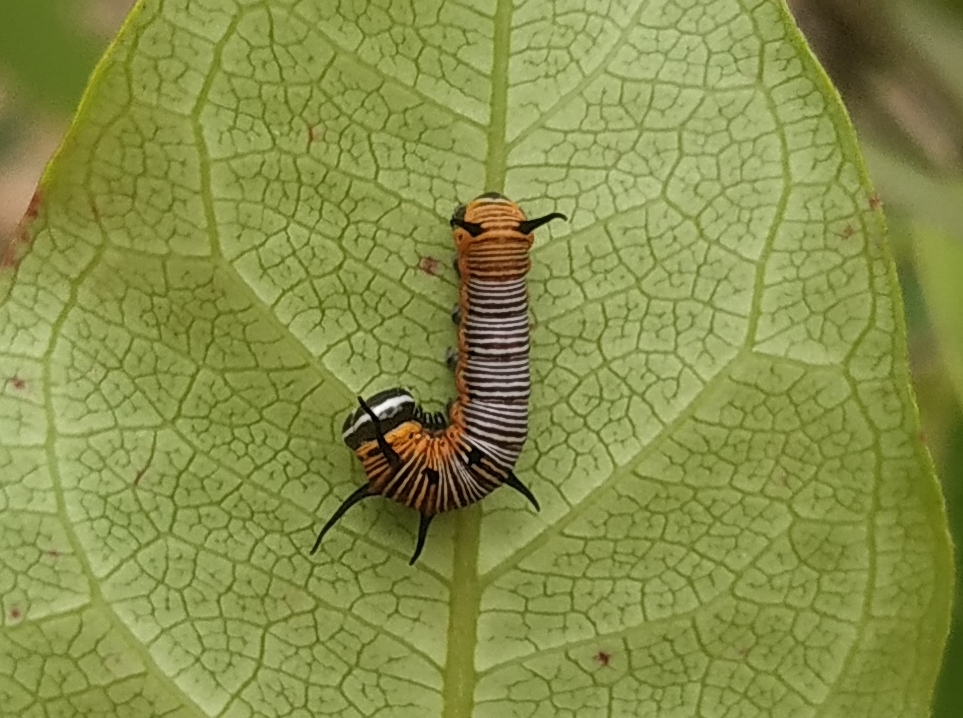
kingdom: Animalia
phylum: Arthropoda
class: Insecta
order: Lepidoptera
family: Nymphalidae
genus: Euploea
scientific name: Euploea core
